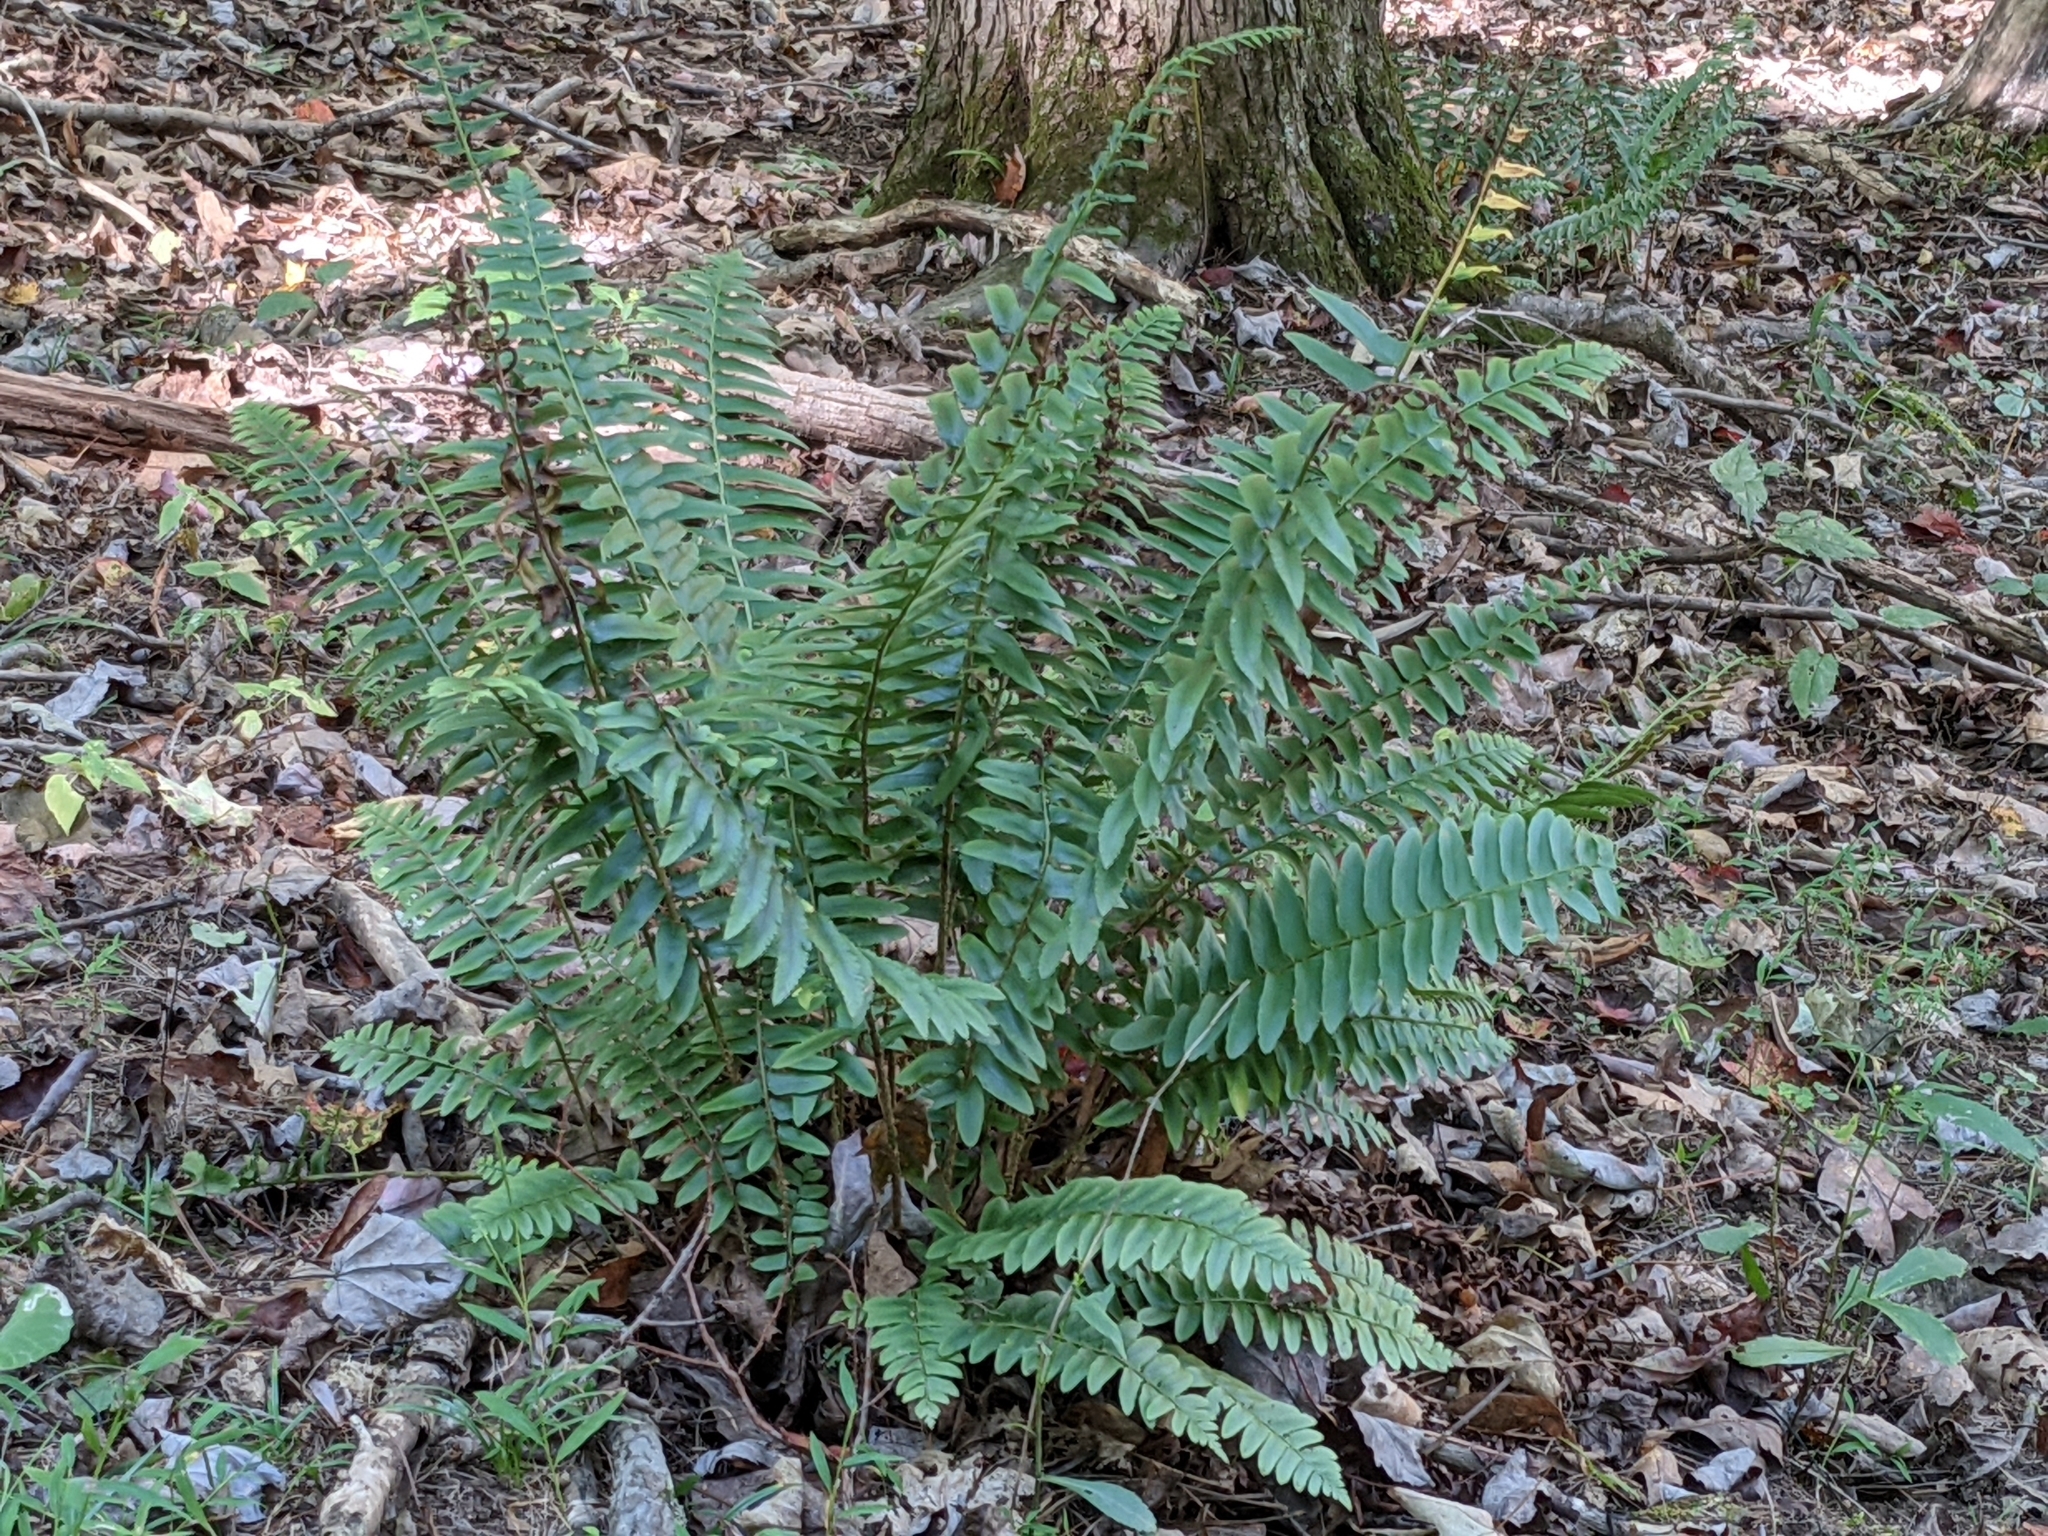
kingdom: Plantae
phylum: Tracheophyta
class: Polypodiopsida
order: Polypodiales
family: Dryopteridaceae
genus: Polystichum
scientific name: Polystichum acrostichoides
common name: Christmas fern
